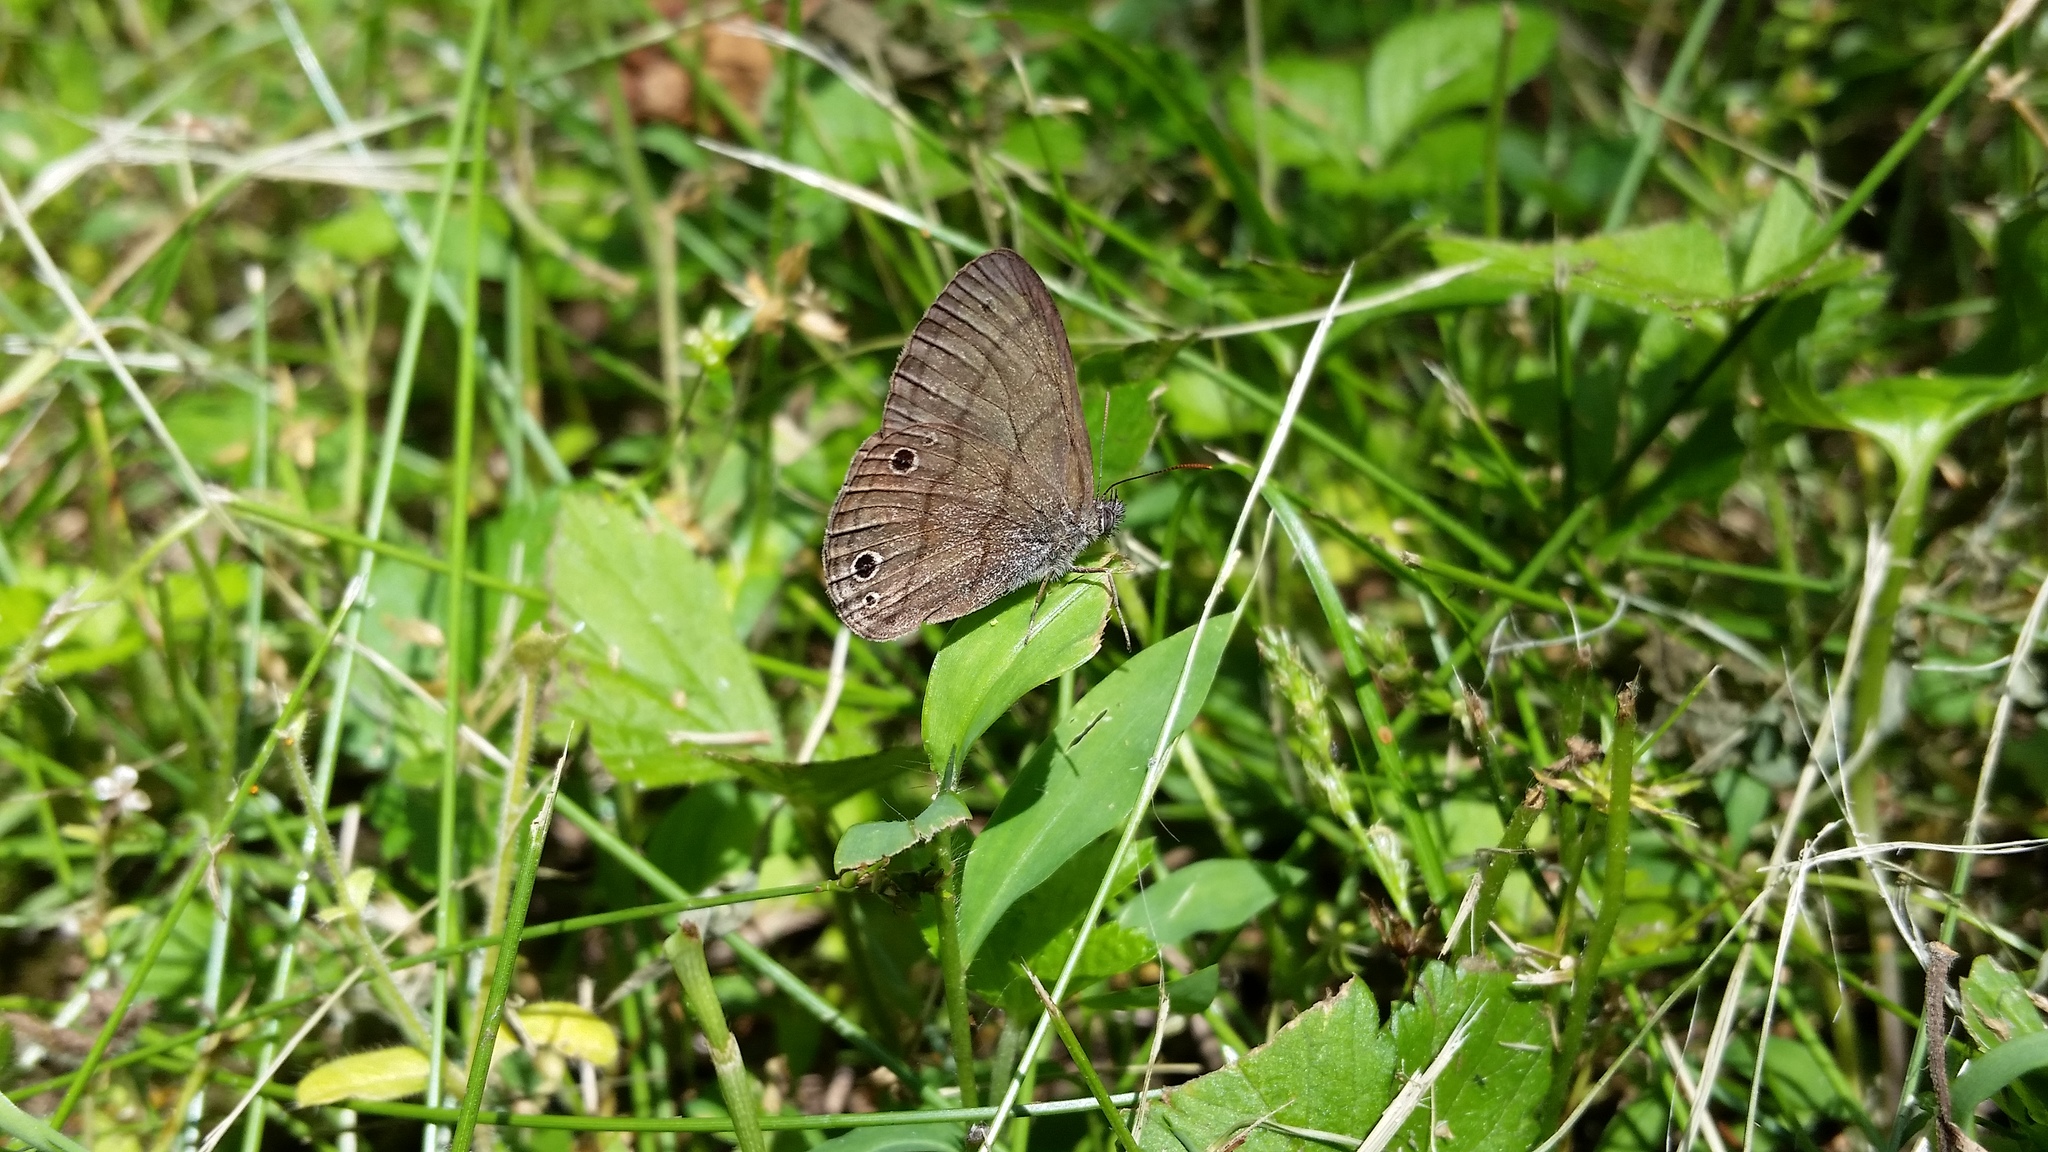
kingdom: Animalia
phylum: Arthropoda
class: Insecta
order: Lepidoptera
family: Nymphalidae
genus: Hermeuptychia
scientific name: Hermeuptychia hermes
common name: Hermes satyr
